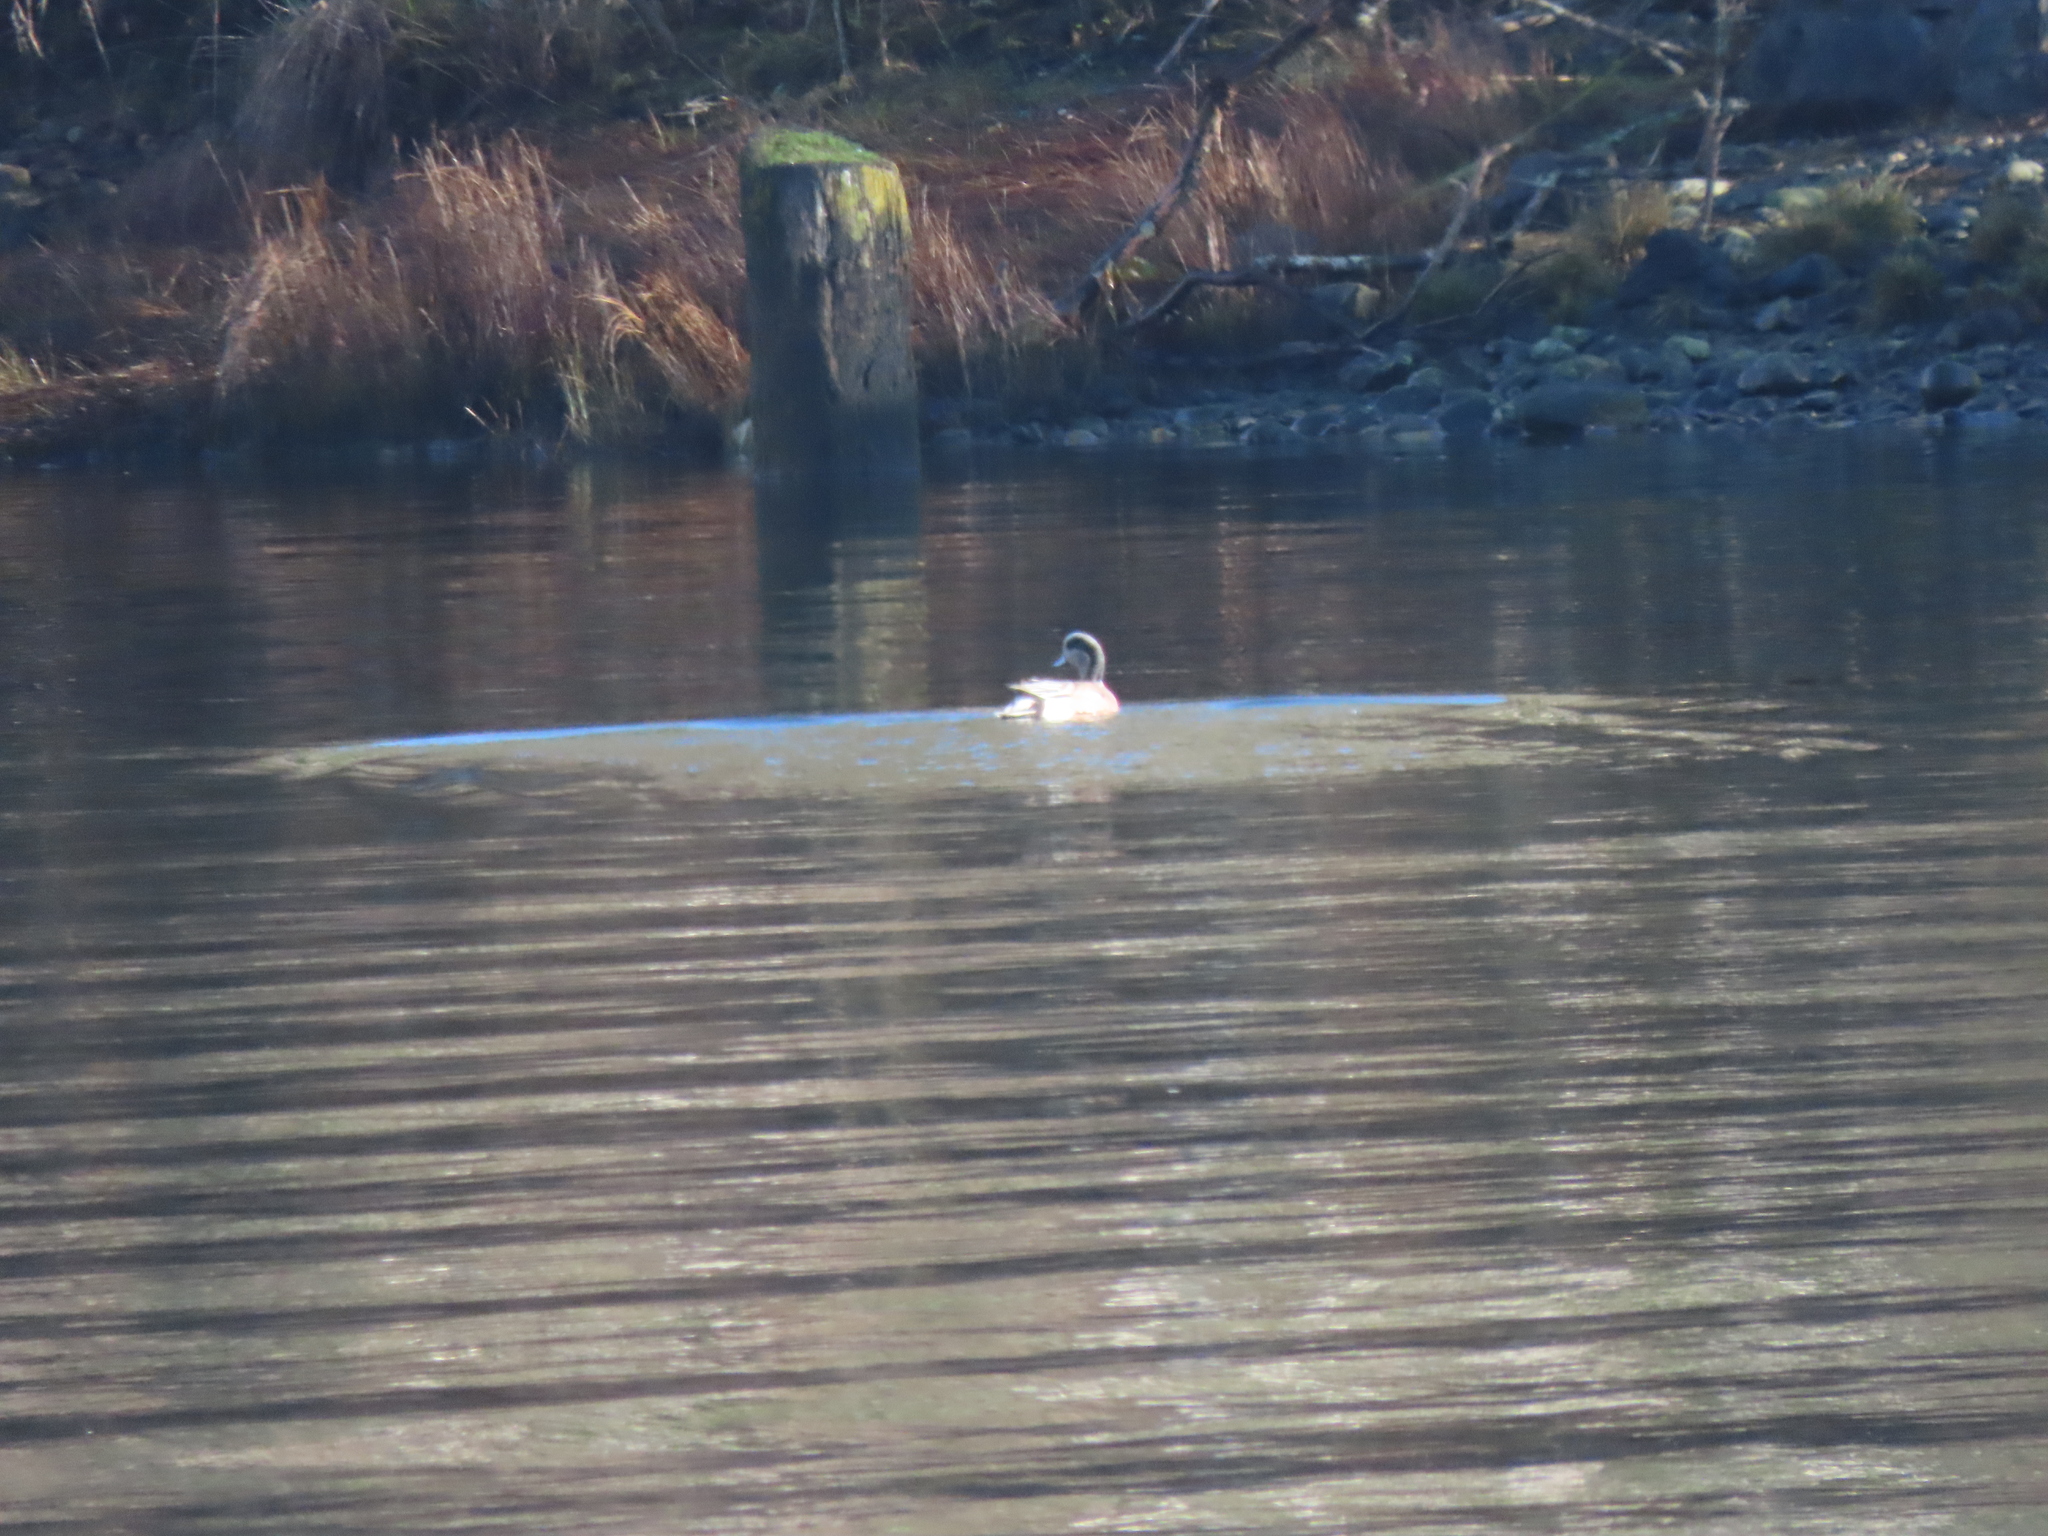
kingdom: Animalia
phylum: Chordata
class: Aves
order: Anseriformes
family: Anatidae
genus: Mareca
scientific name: Mareca americana
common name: American wigeon
